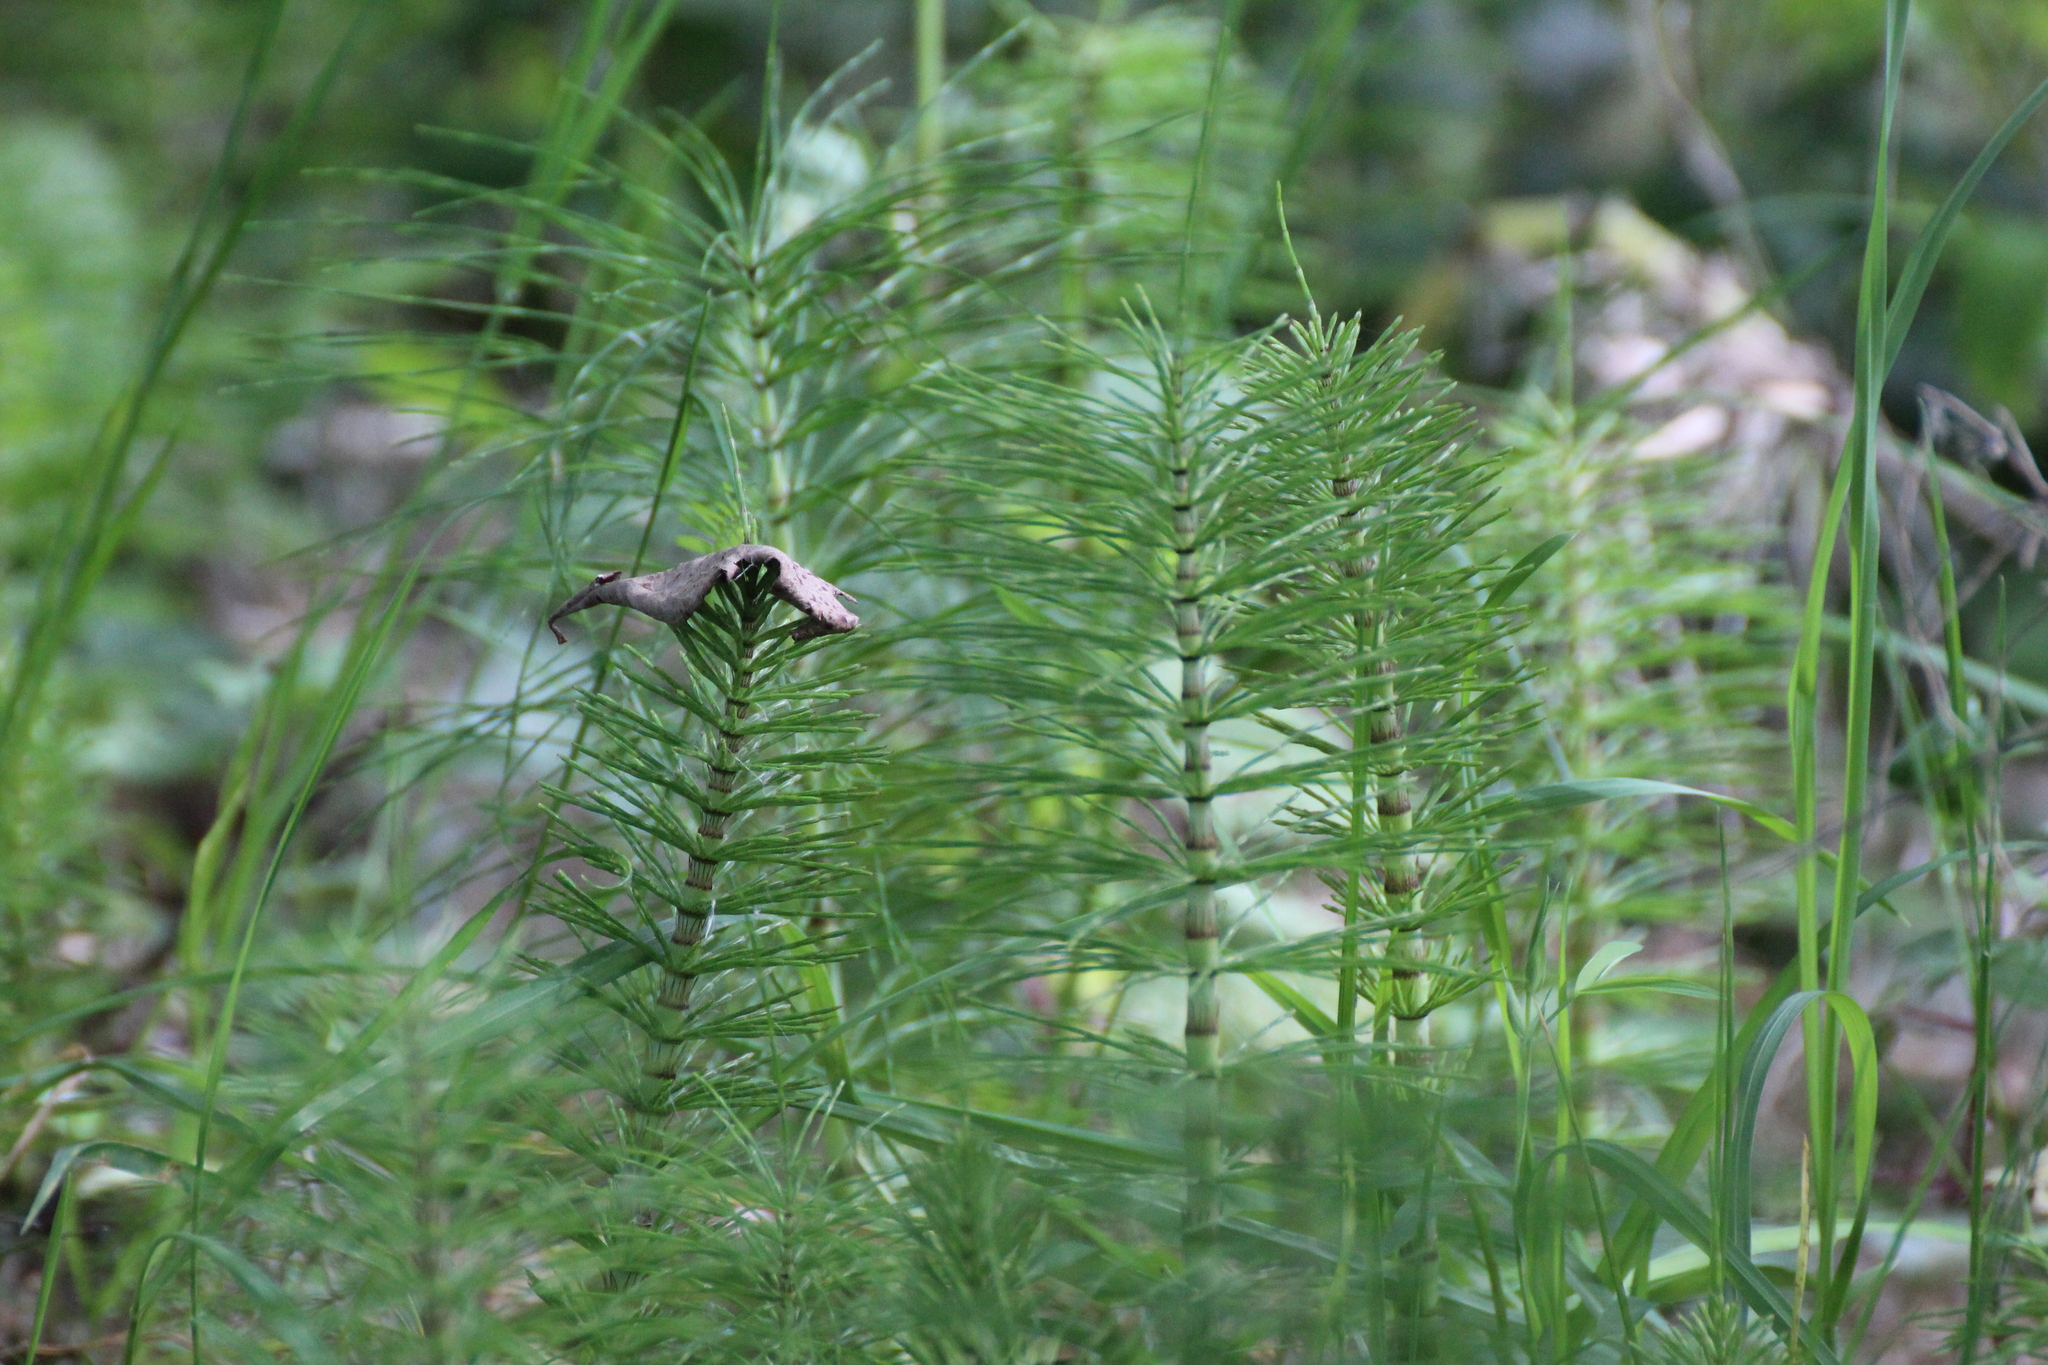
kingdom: Plantae
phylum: Tracheophyta
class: Polypodiopsida
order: Equisetales
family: Equisetaceae
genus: Equisetum
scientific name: Equisetum telmateia
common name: Great horsetail
